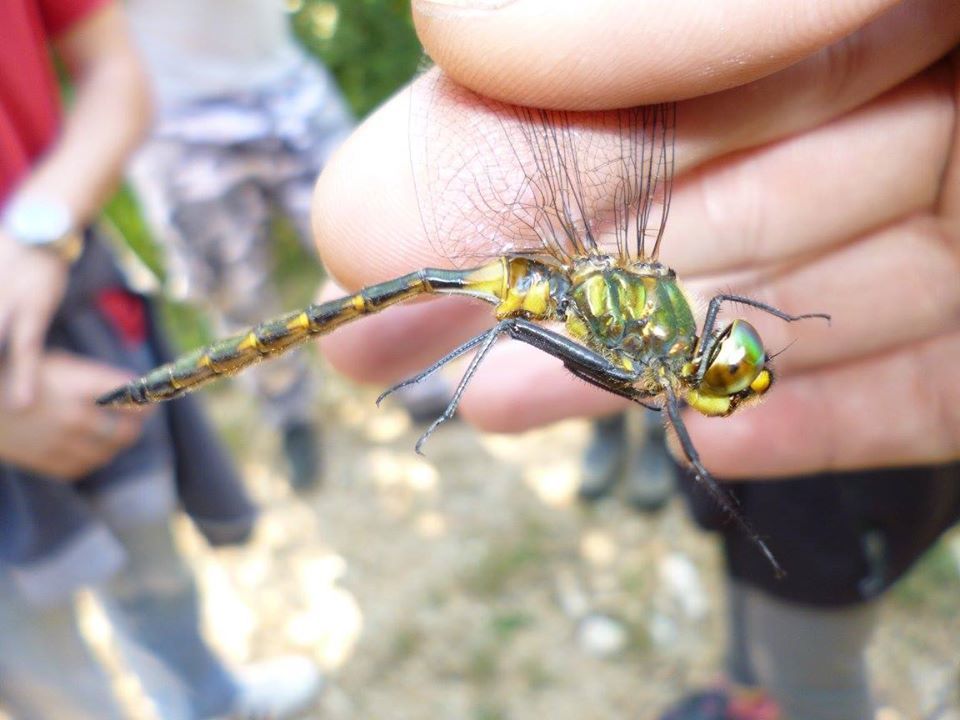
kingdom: Animalia
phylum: Arthropoda
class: Insecta
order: Odonata
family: Corduliidae
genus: Somatochlora
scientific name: Somatochlora flavomaculata
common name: Yellow-spotted emerald
